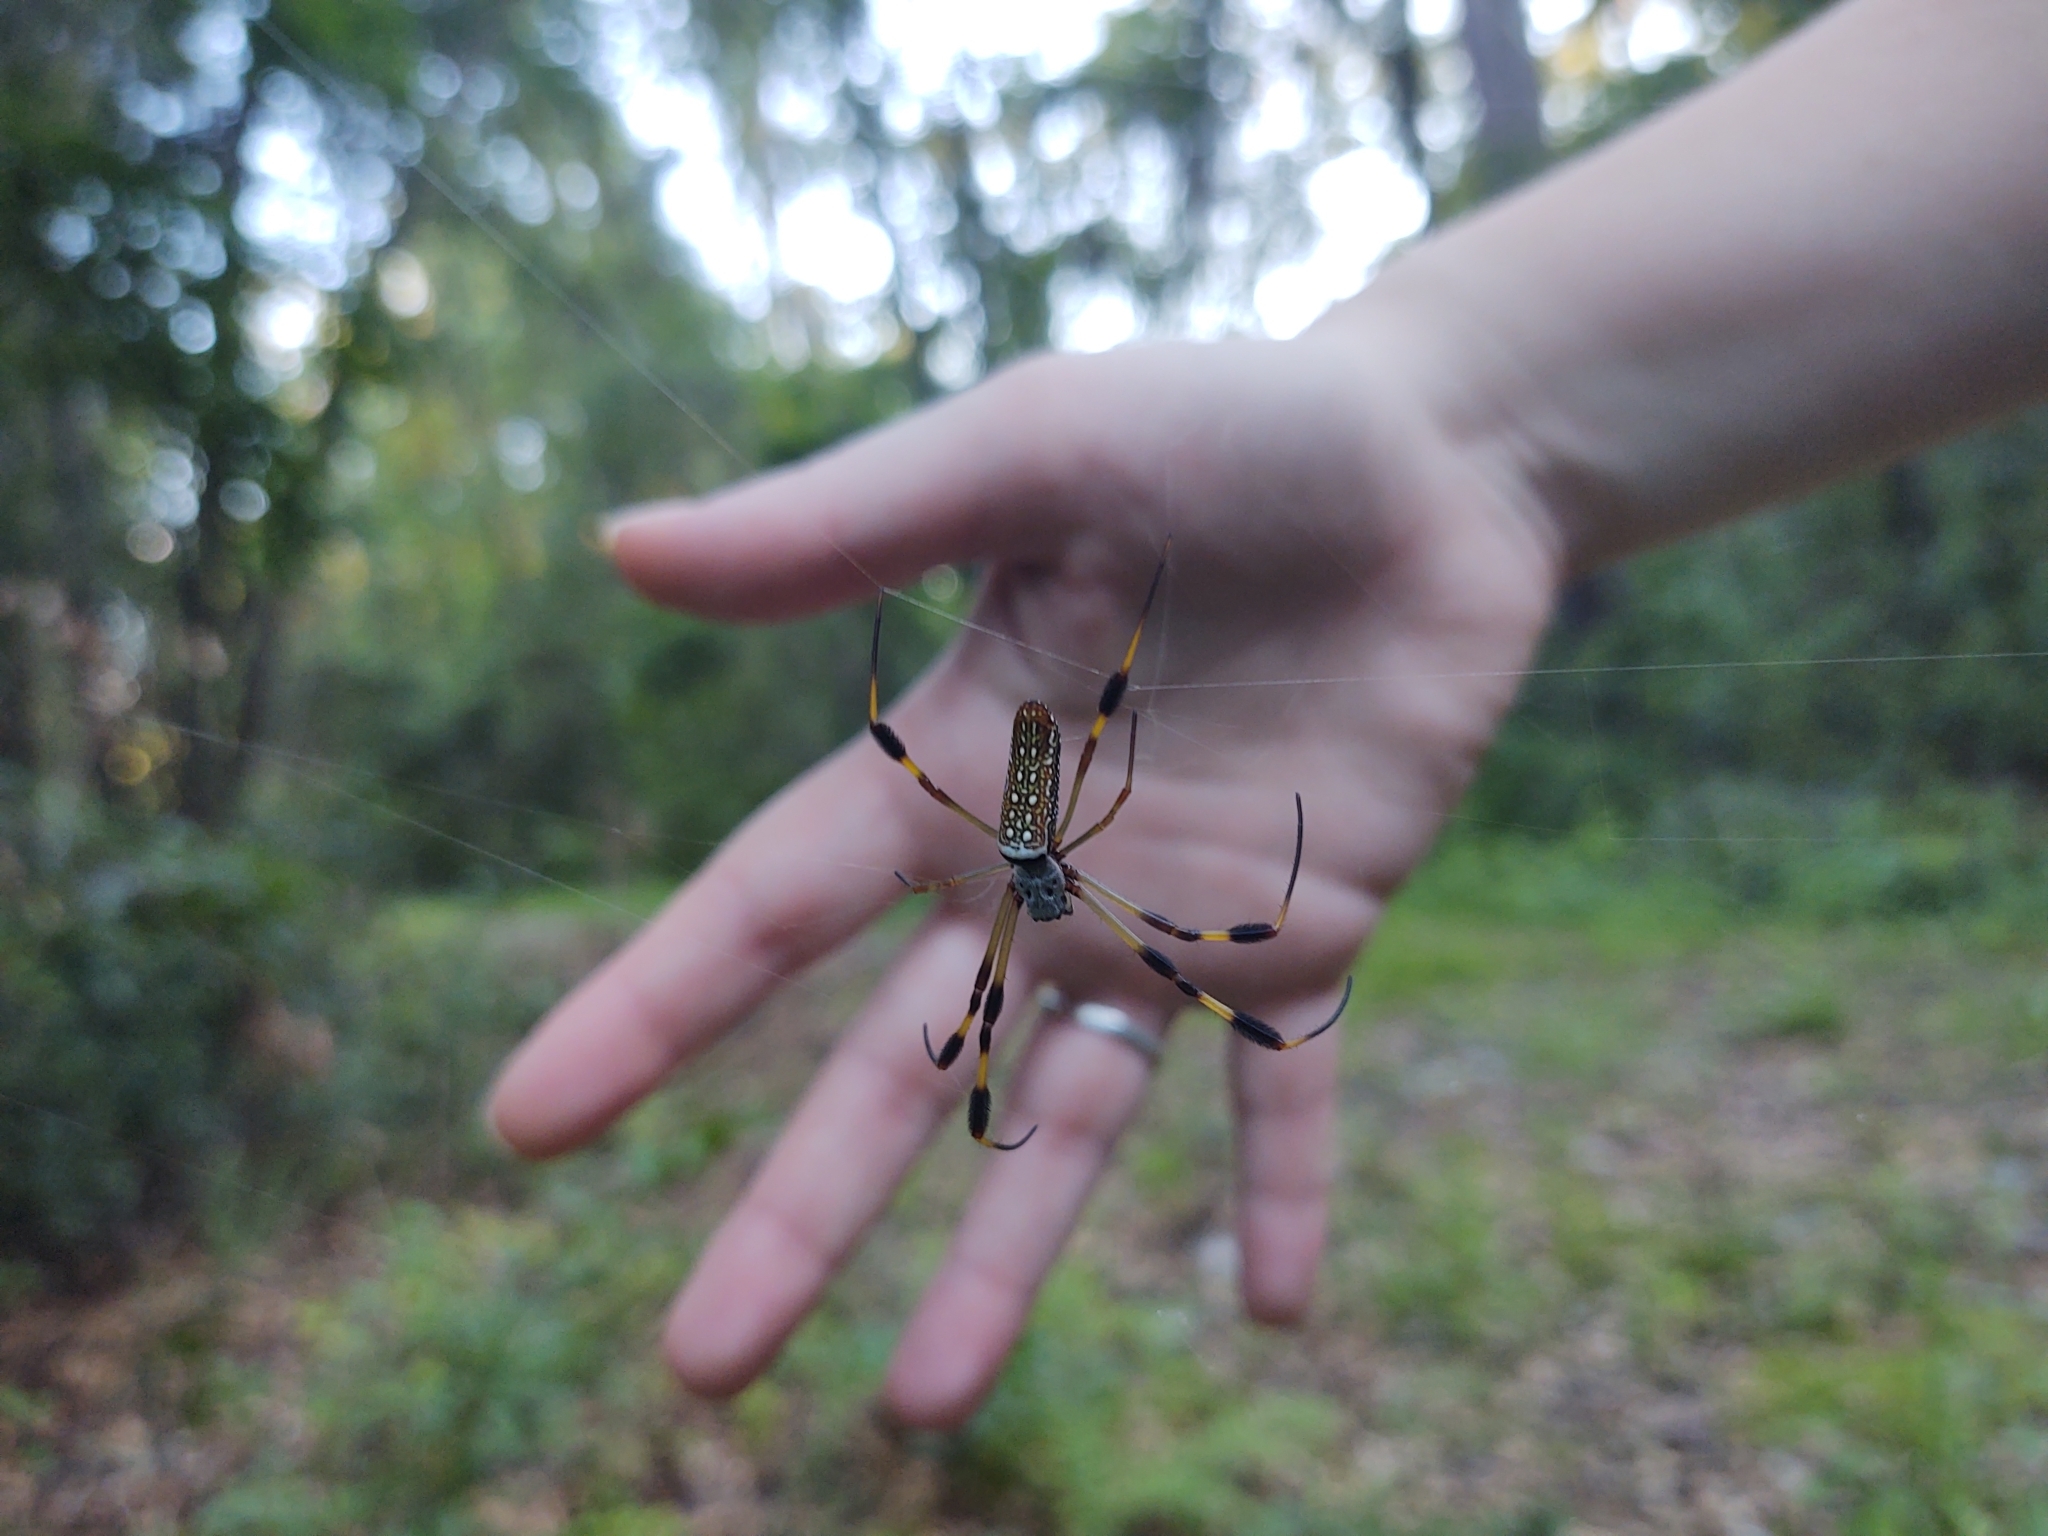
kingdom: Animalia
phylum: Arthropoda
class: Arachnida
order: Araneae
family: Araneidae
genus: Trichonephila
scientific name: Trichonephila clavipes
